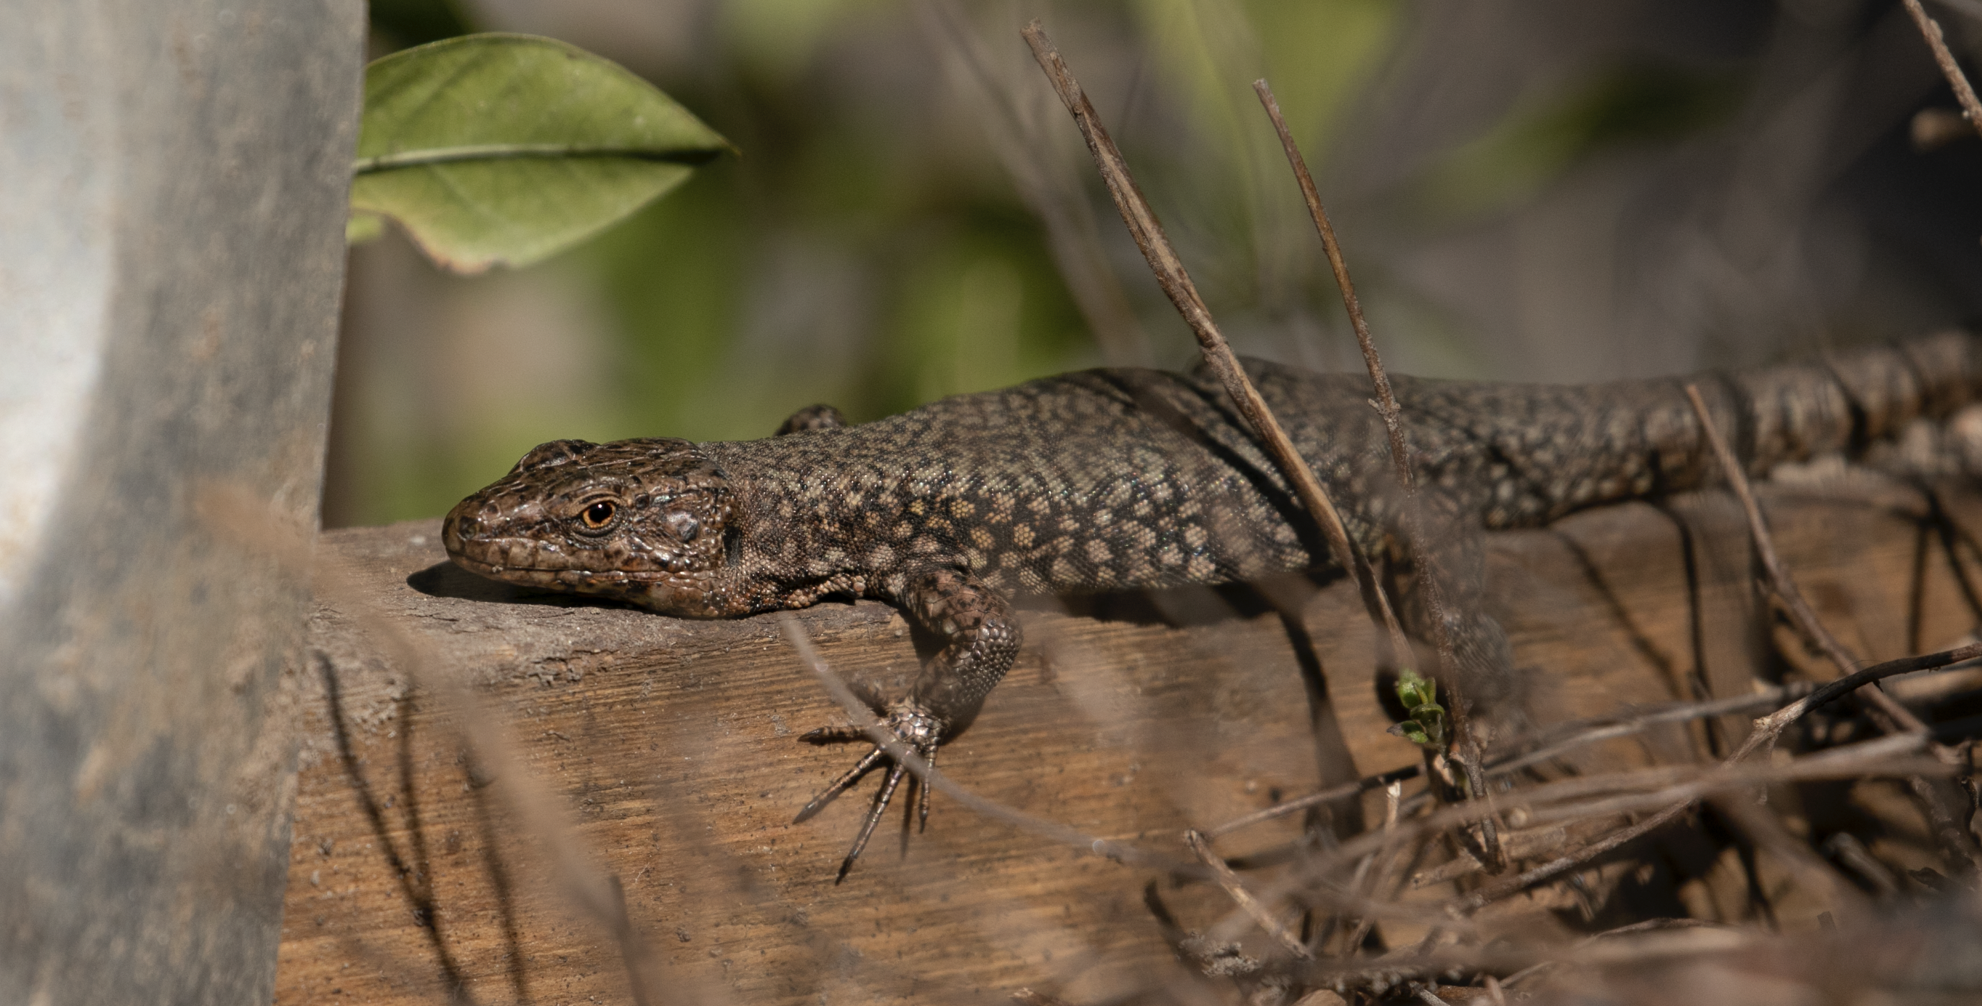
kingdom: Animalia
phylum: Chordata
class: Squamata
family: Lacertidae
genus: Podarcis
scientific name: Podarcis muralis
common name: Common wall lizard
